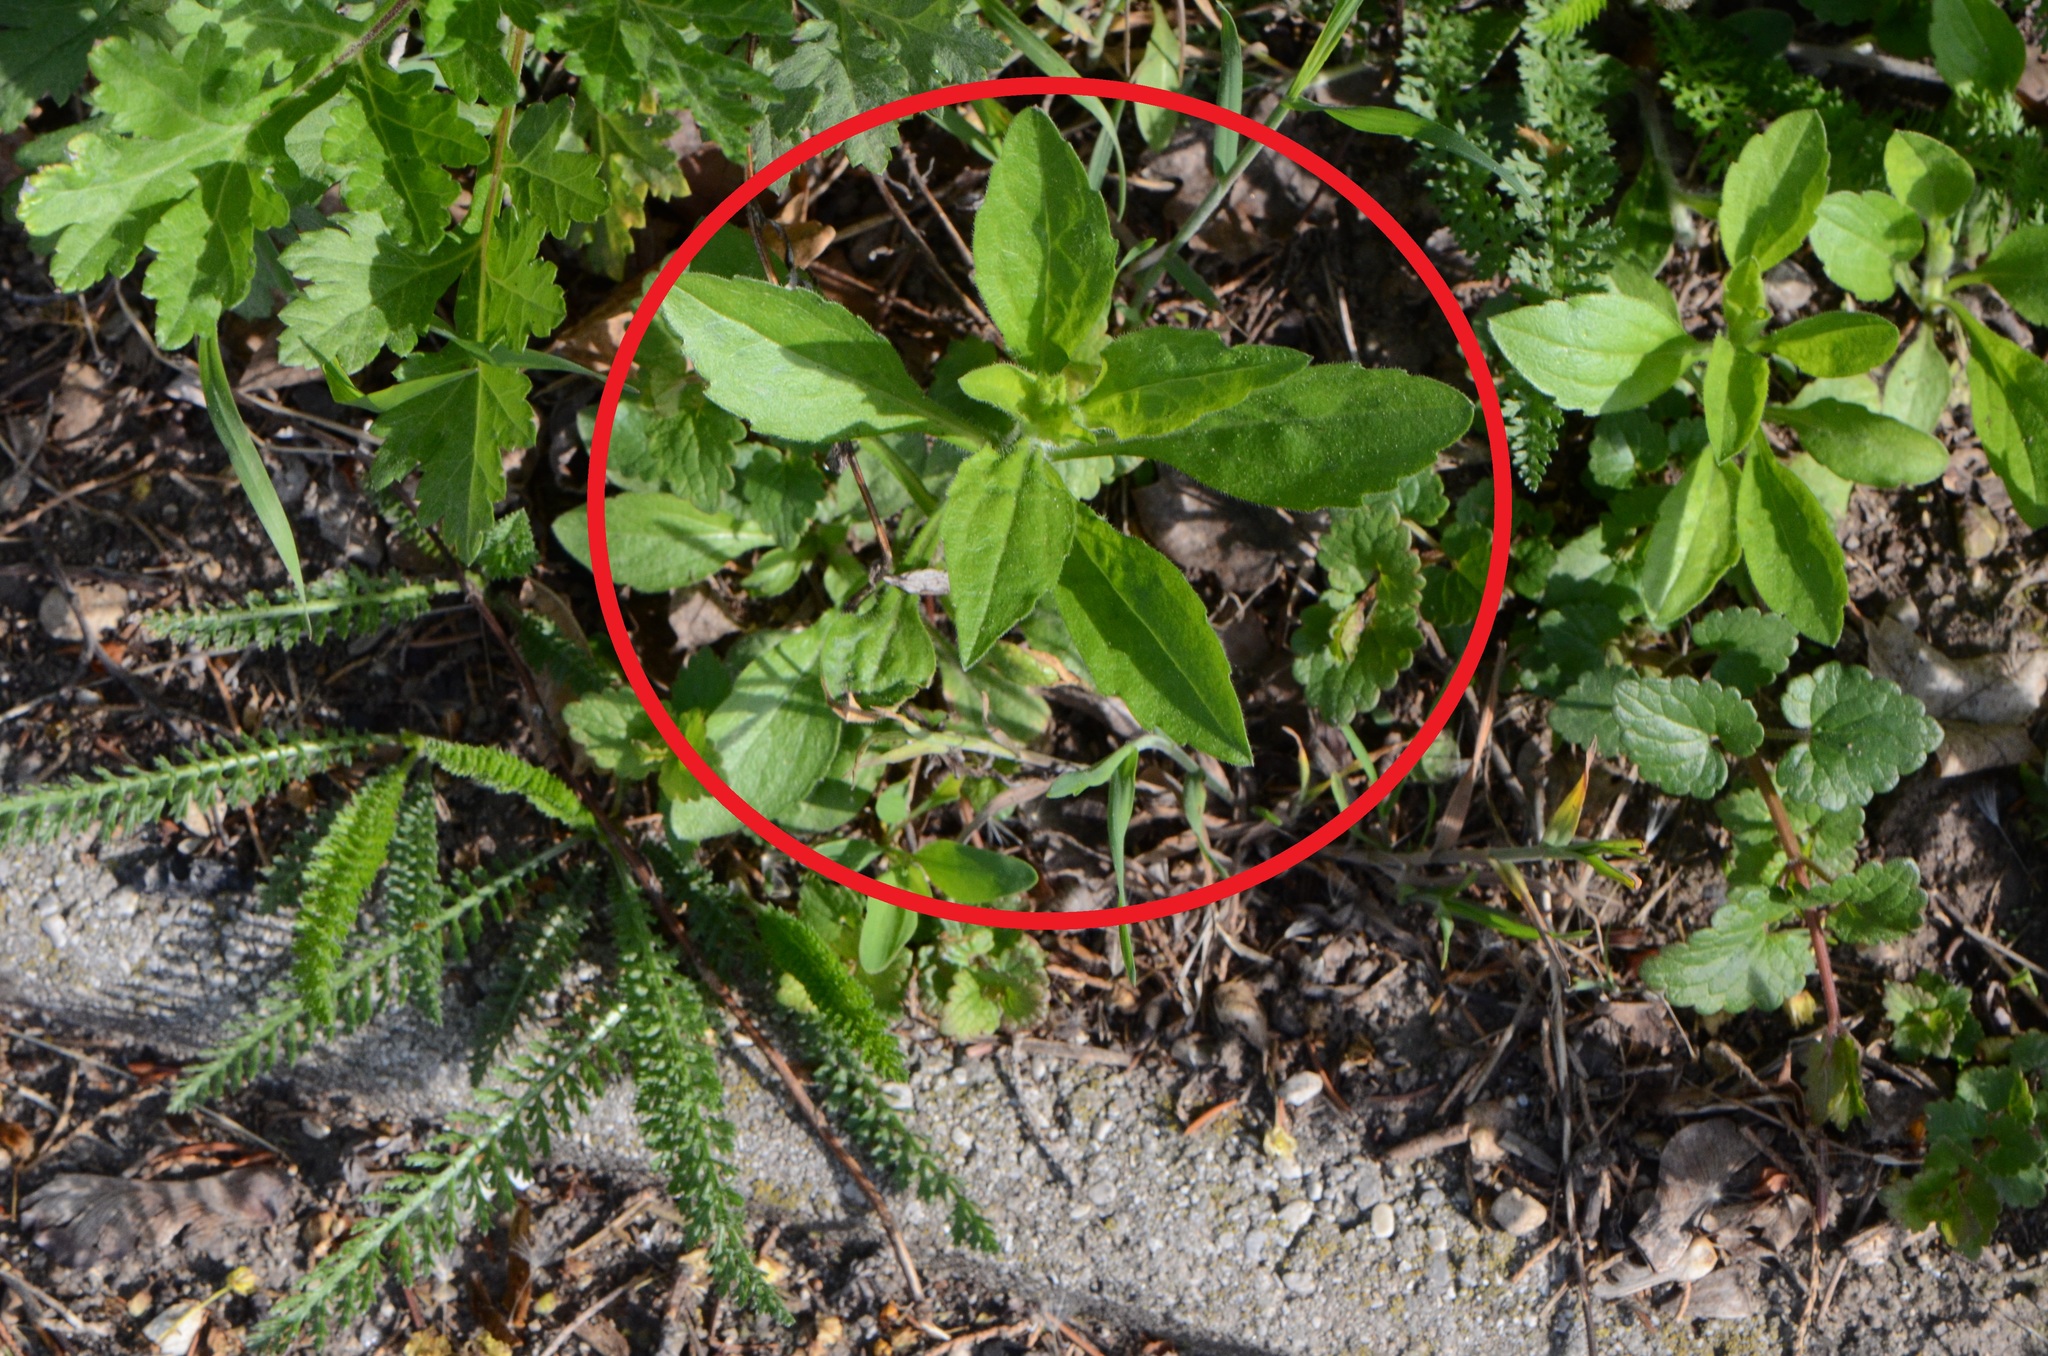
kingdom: Plantae
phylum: Tracheophyta
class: Magnoliopsida
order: Asterales
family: Asteraceae
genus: Erigeron
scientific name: Erigeron annuus
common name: Tall fleabane
